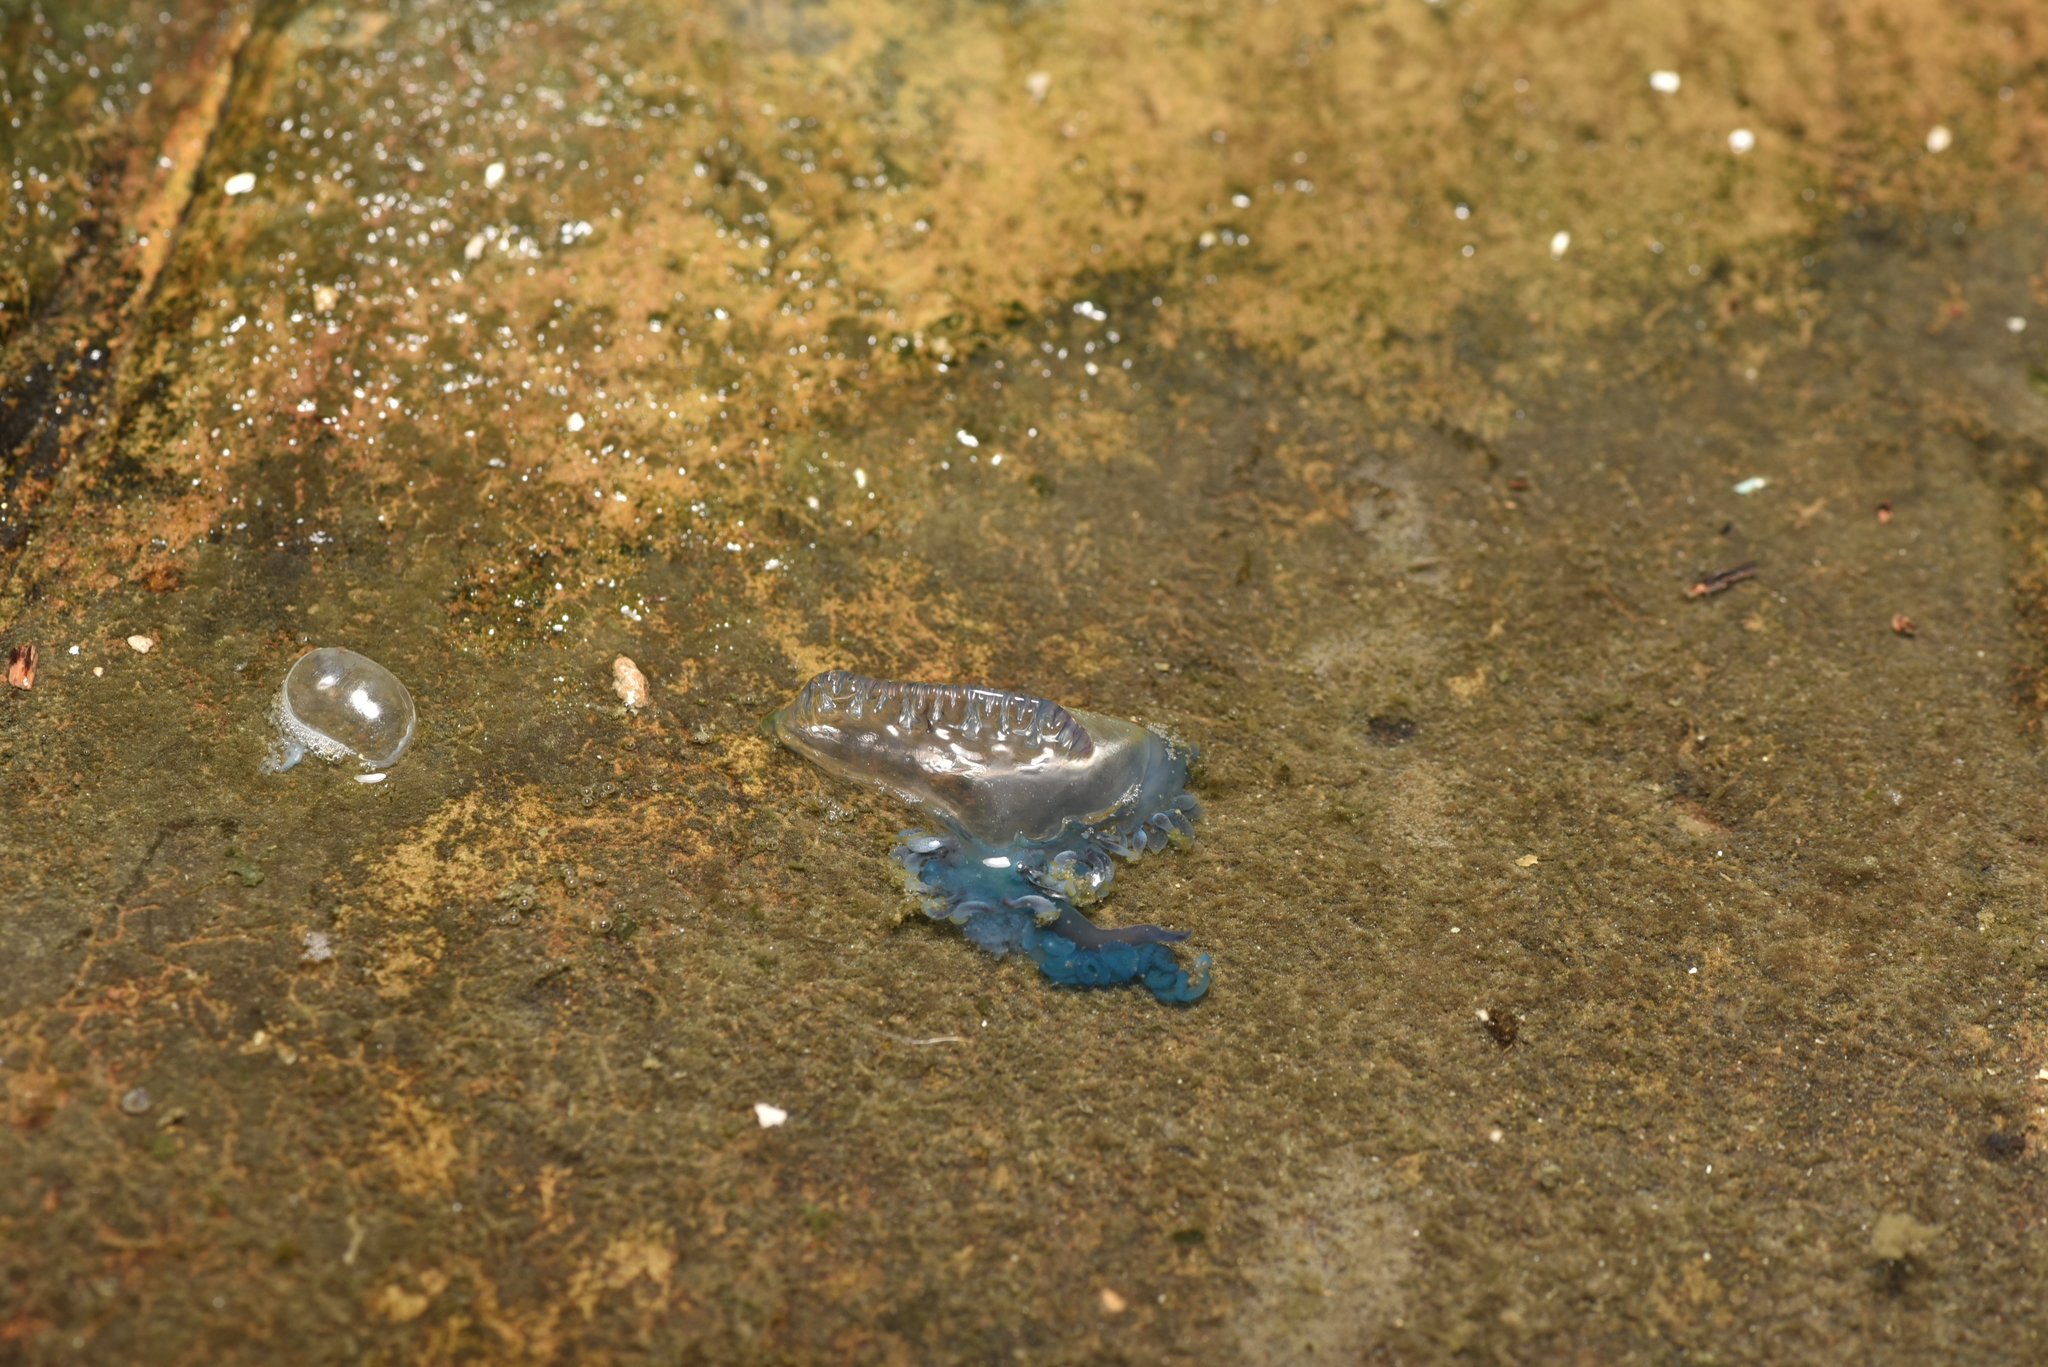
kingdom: Animalia
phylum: Cnidaria
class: Hydrozoa
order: Siphonophorae
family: Physaliidae
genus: Physalia
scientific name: Physalia physalis
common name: Portuguese man-of-war
